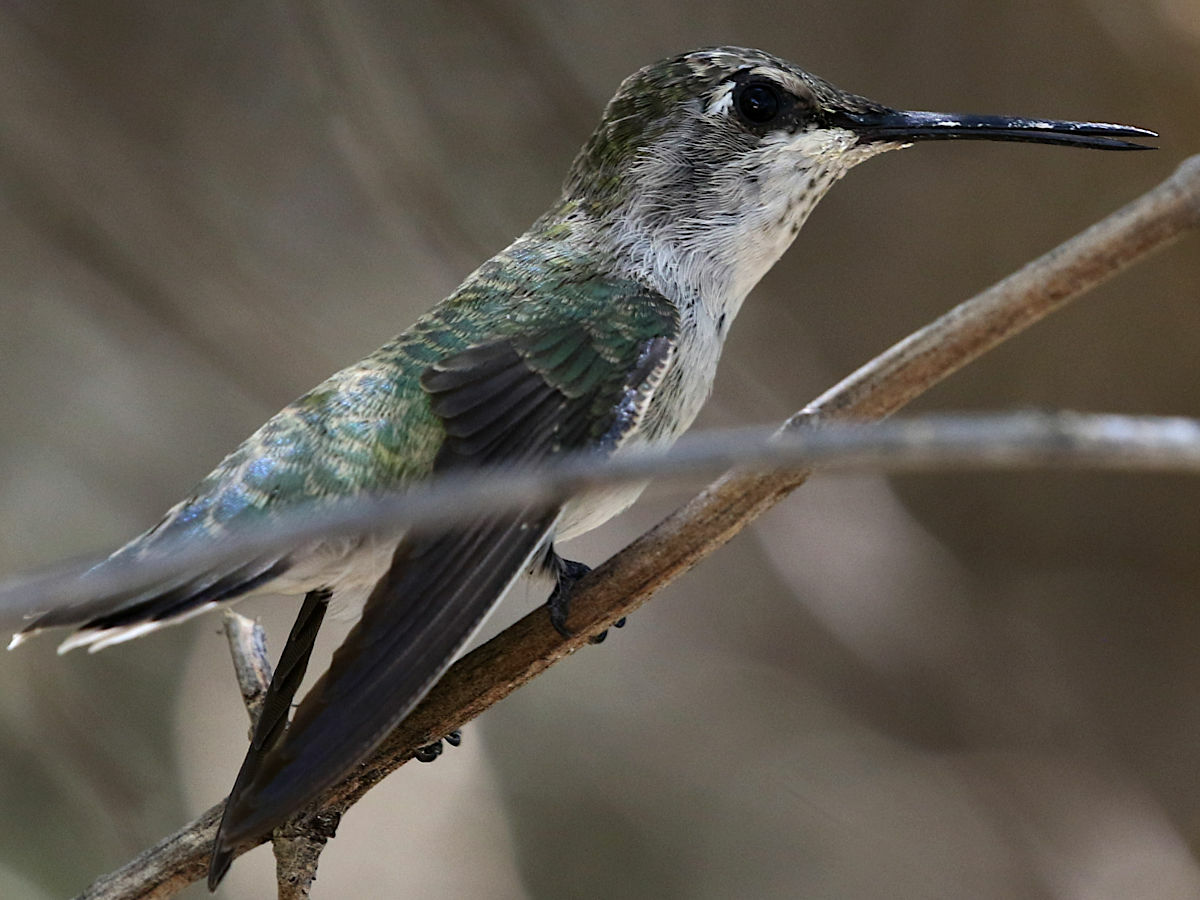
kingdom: Animalia
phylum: Chordata
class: Aves
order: Apodiformes
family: Trochilidae
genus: Archilochus
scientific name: Archilochus alexandri
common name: Black-chinned hummingbird
